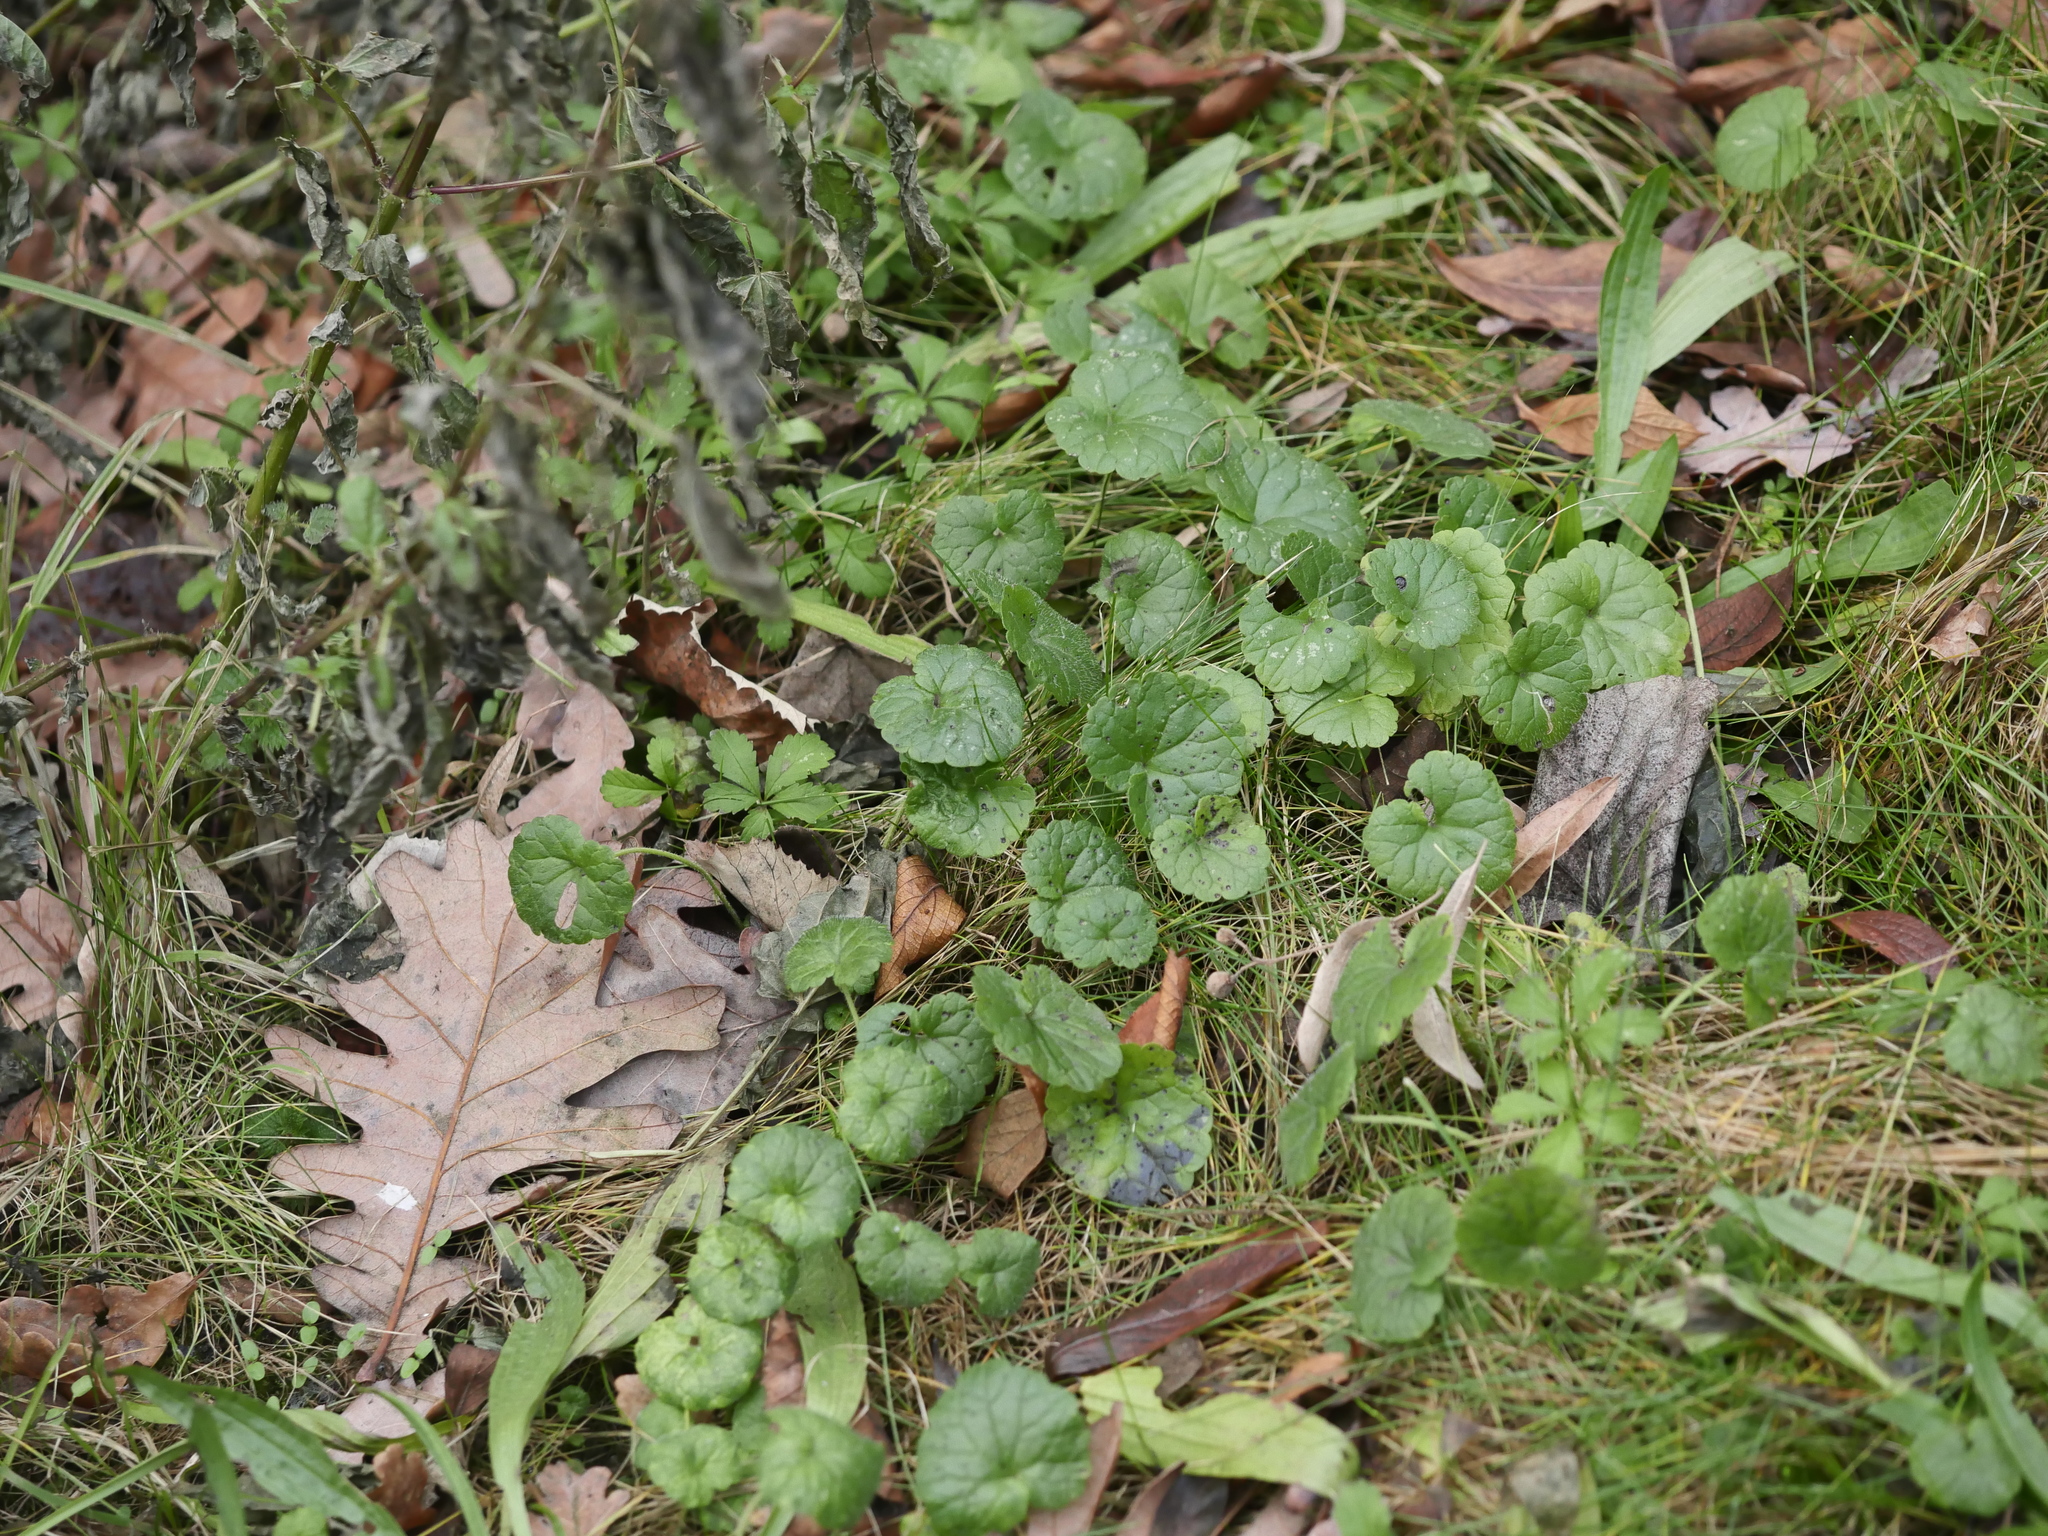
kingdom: Plantae
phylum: Tracheophyta
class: Magnoliopsida
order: Lamiales
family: Lamiaceae
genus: Glechoma
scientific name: Glechoma hederacea
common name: Ground ivy
